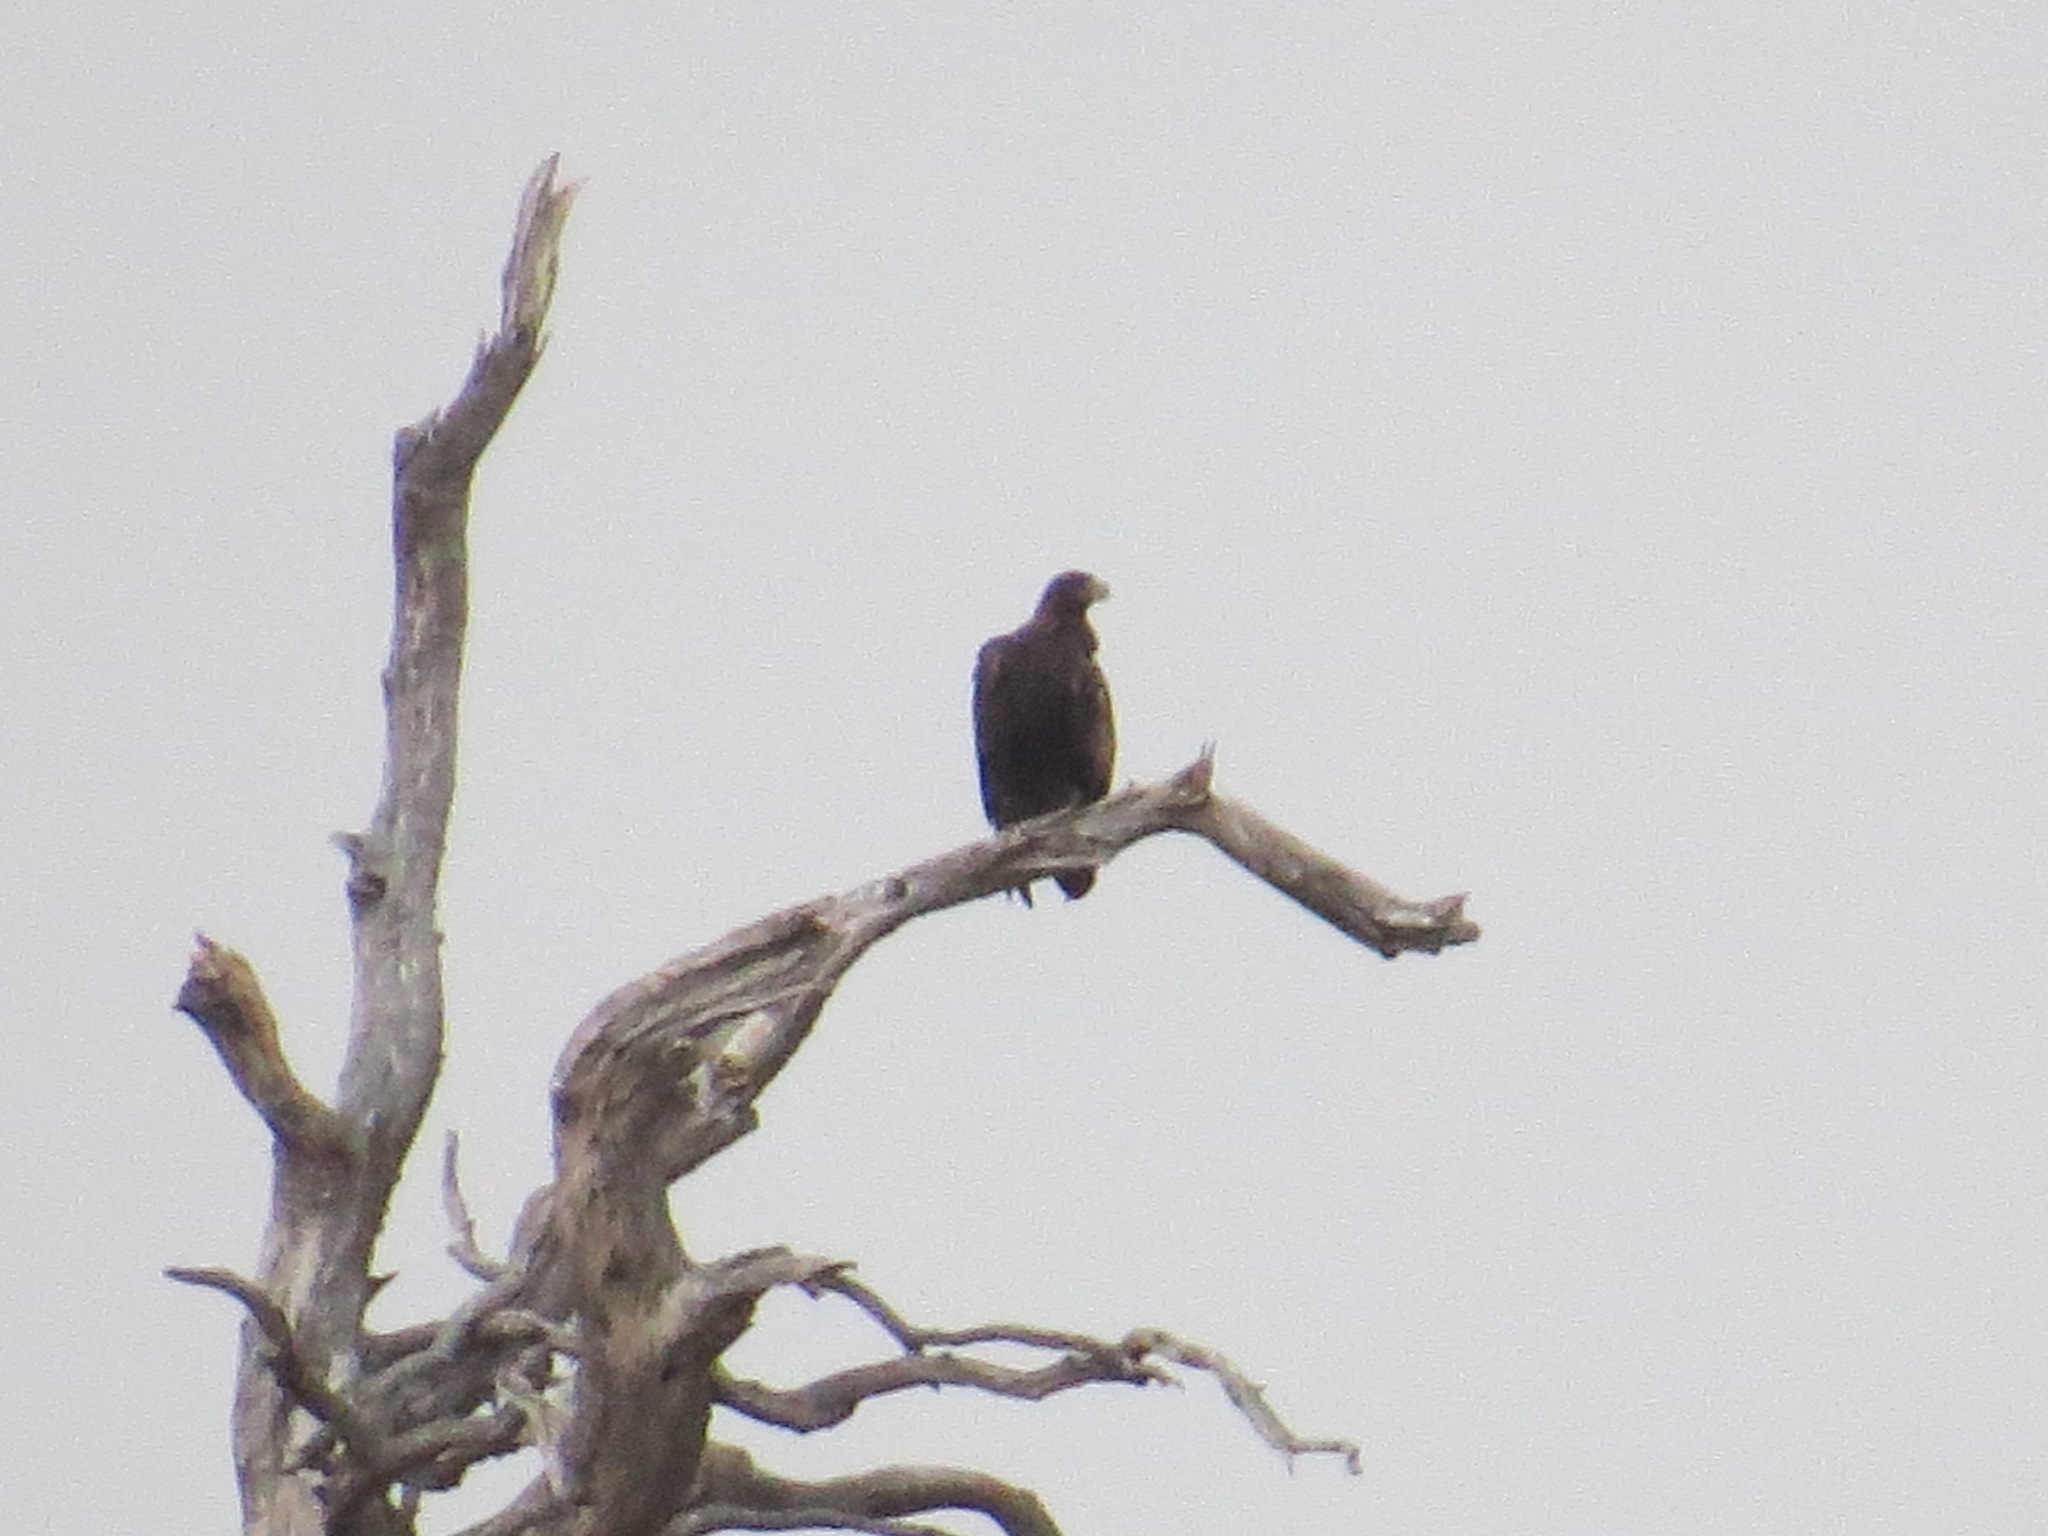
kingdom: Animalia
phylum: Chordata
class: Aves
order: Accipitriformes
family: Accipitridae
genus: Aquila
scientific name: Aquila chrysaetos
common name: Golden eagle
